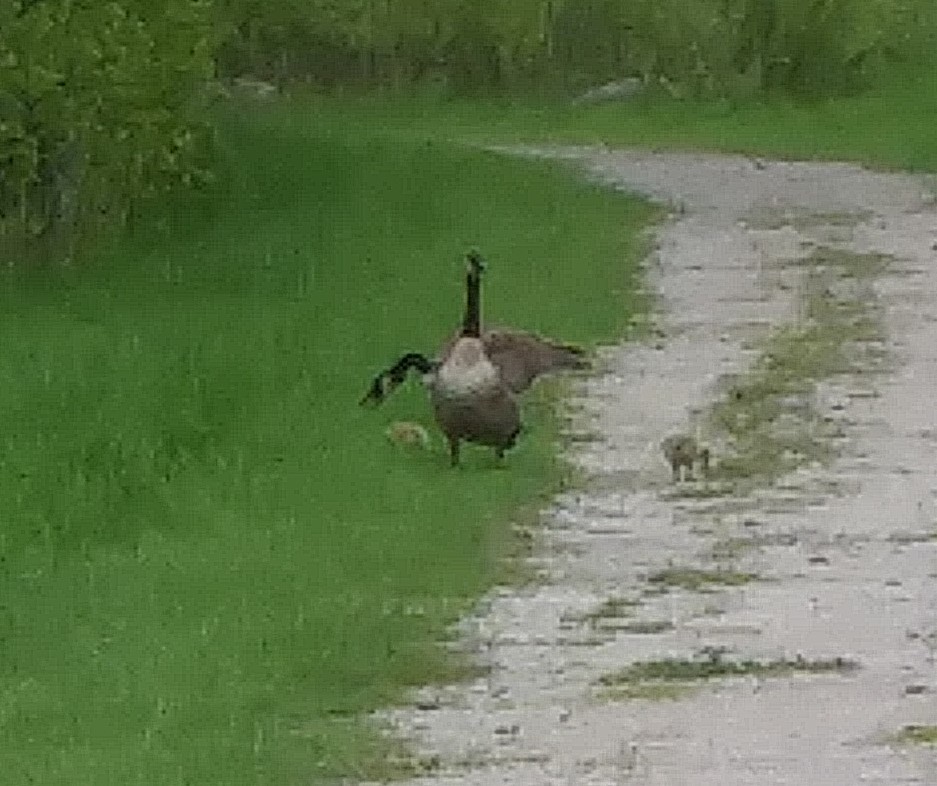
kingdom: Animalia
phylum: Chordata
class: Aves
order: Anseriformes
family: Anatidae
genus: Branta
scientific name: Branta canadensis
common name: Canada goose
